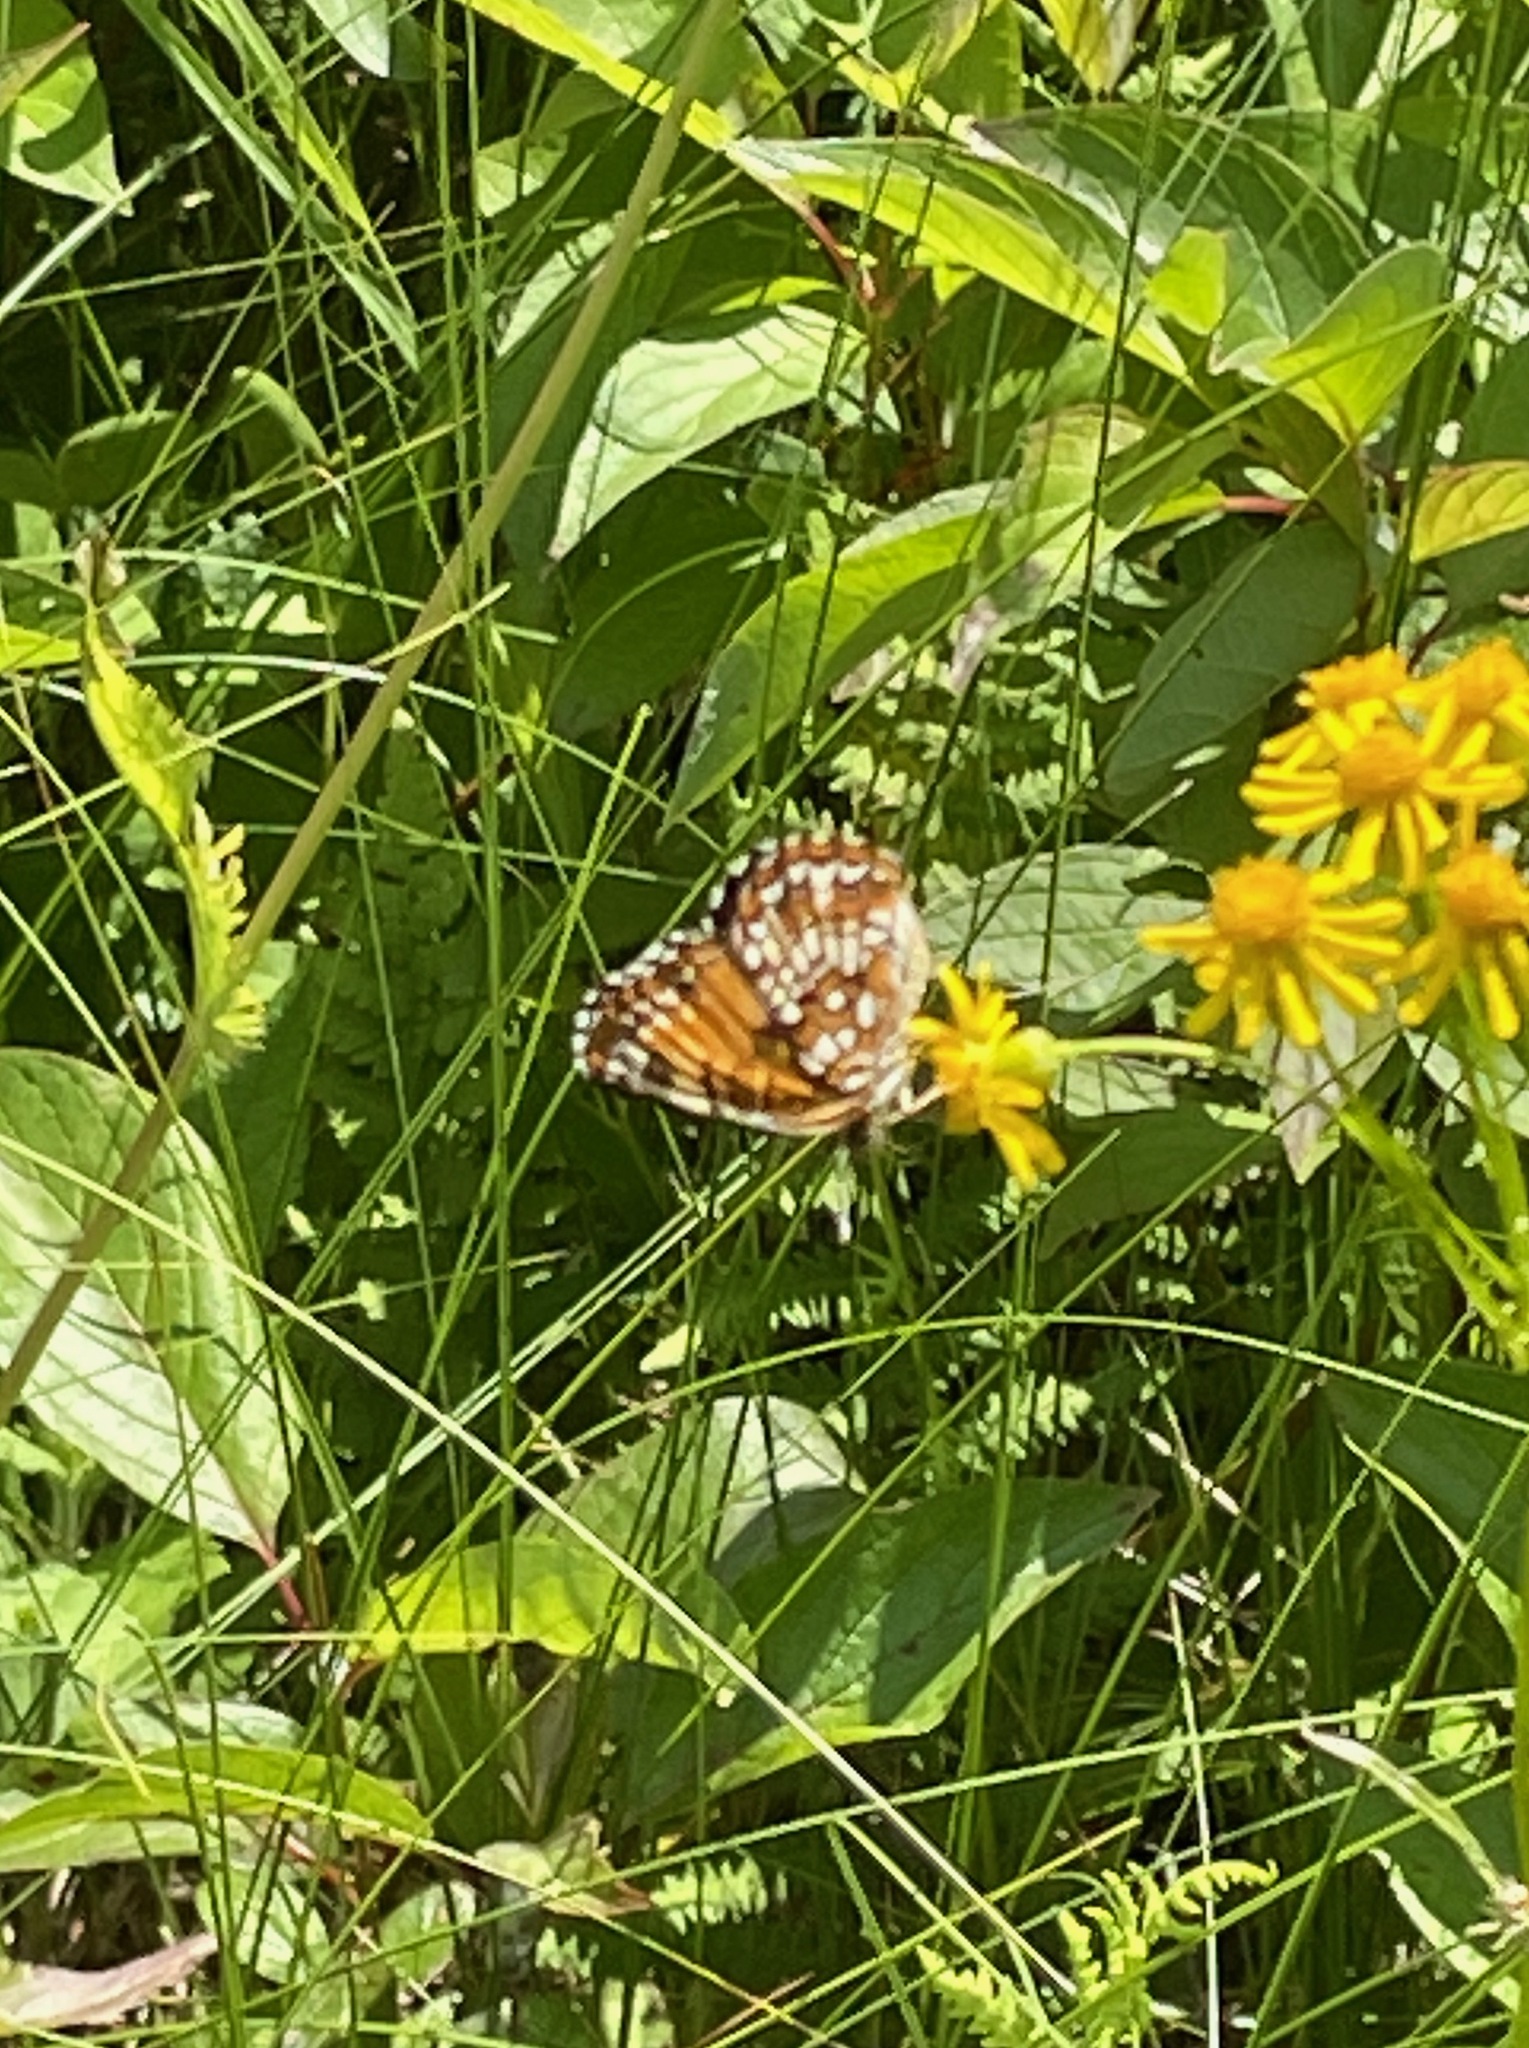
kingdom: Animalia
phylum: Arthropoda
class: Insecta
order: Lepidoptera
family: Nymphalidae
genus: Chlosyne
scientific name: Chlosyne harrisii
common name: Harris's checkerspot
